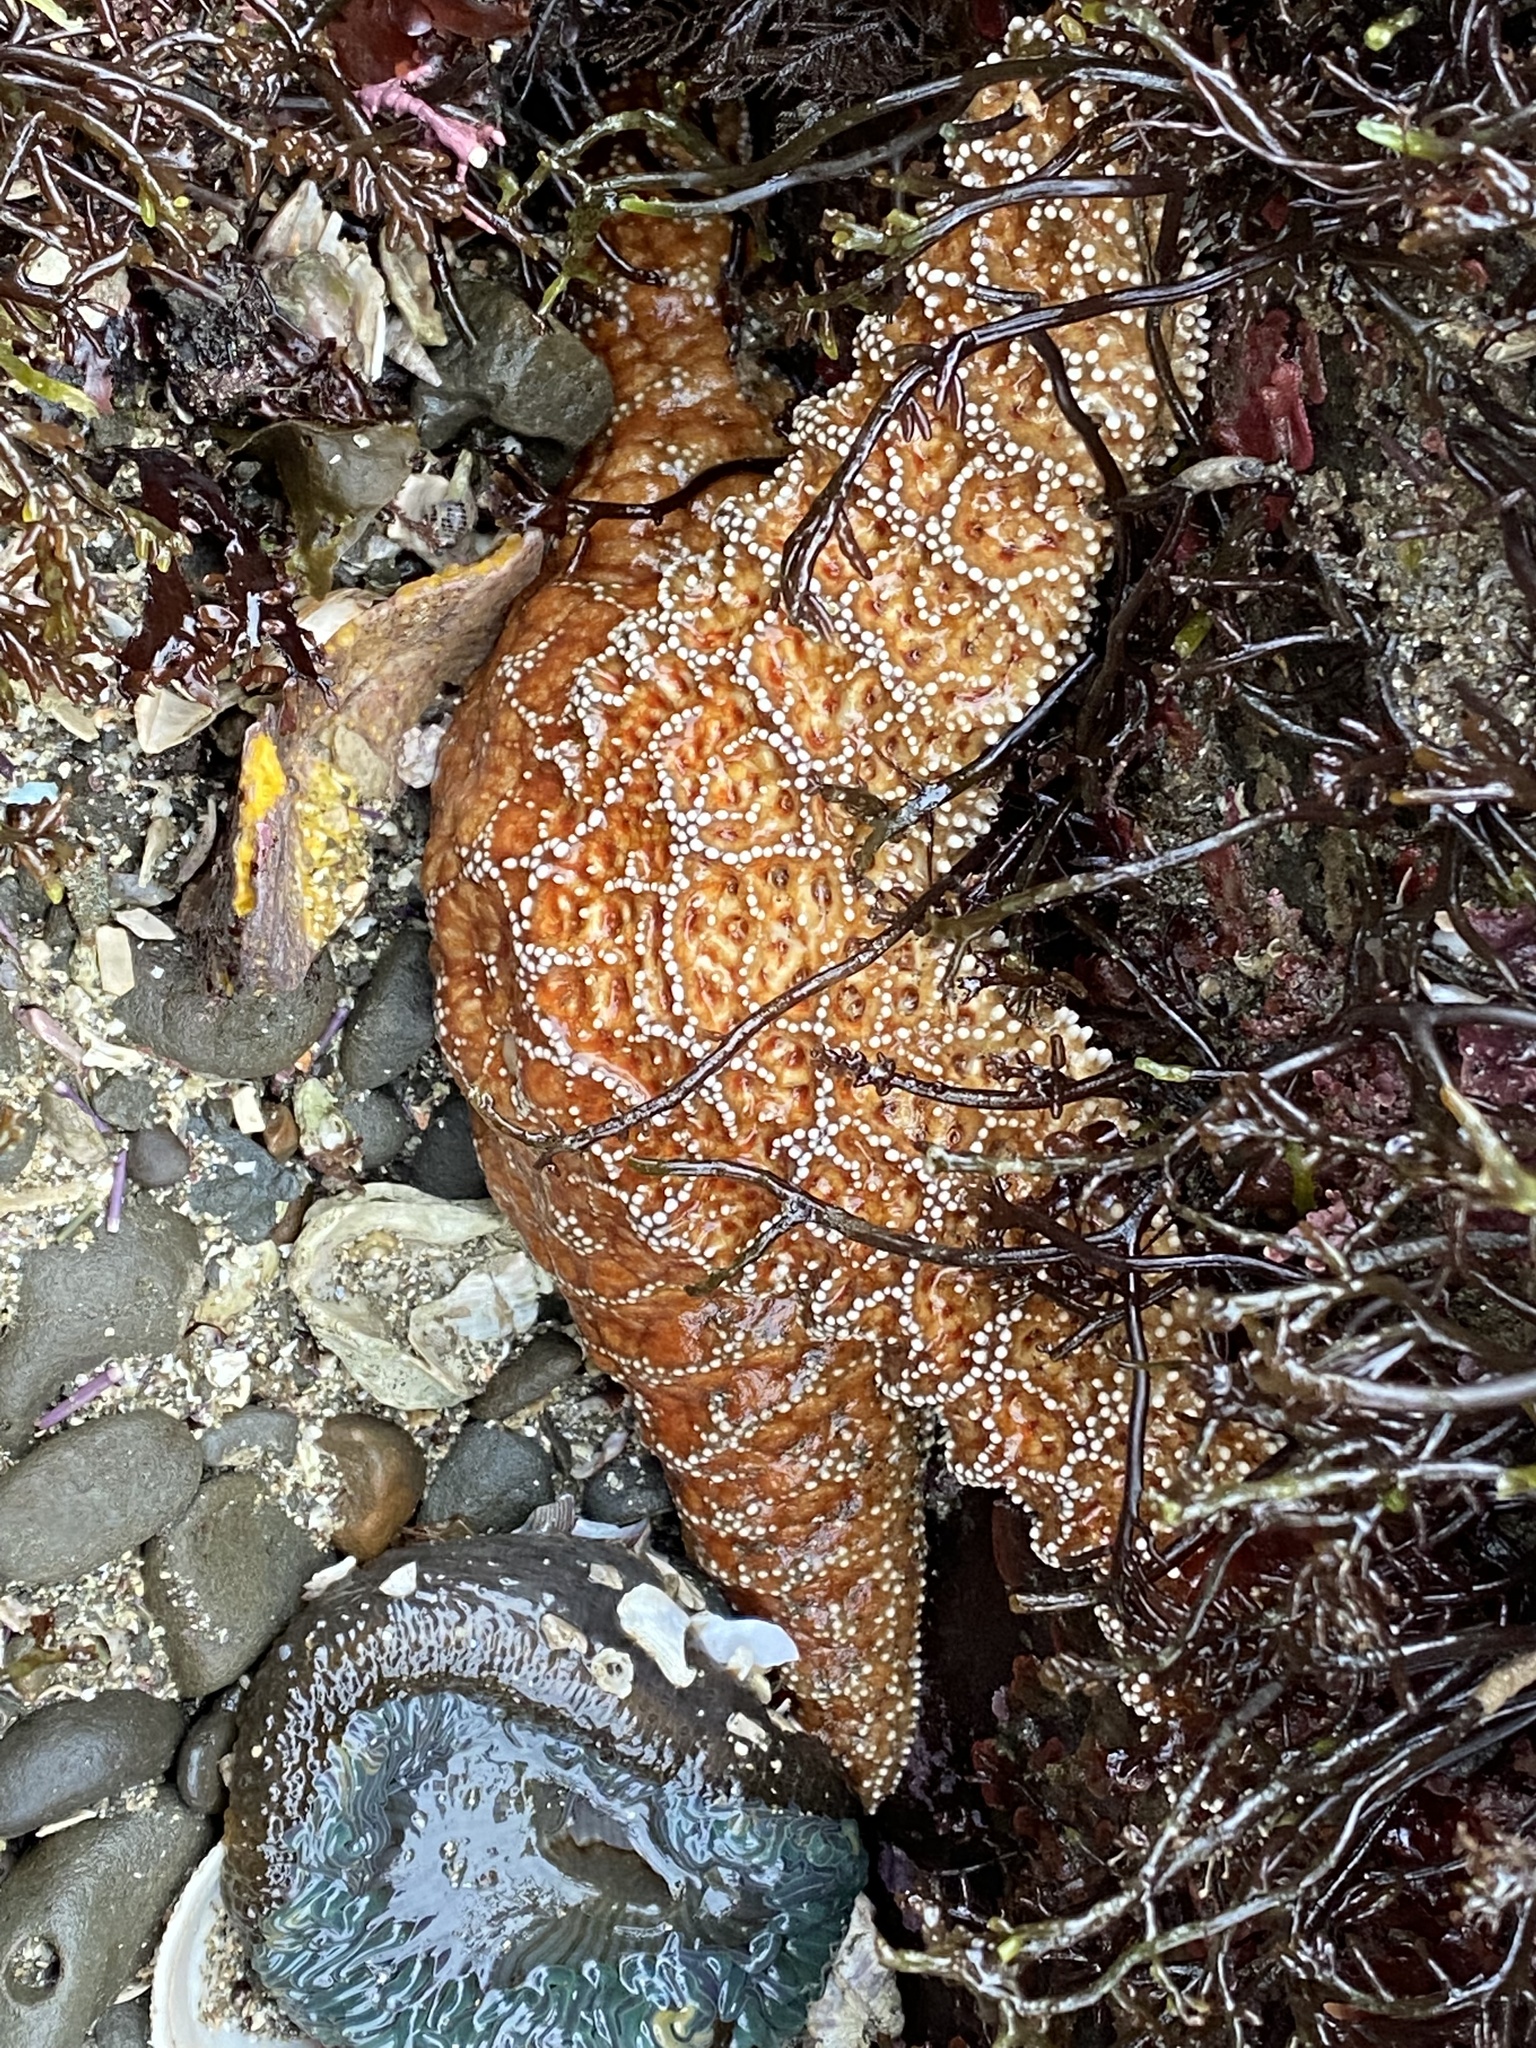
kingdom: Animalia
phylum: Echinodermata
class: Asteroidea
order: Forcipulatida
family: Asteriidae
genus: Pisaster
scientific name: Pisaster ochraceus
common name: Ochre stars
